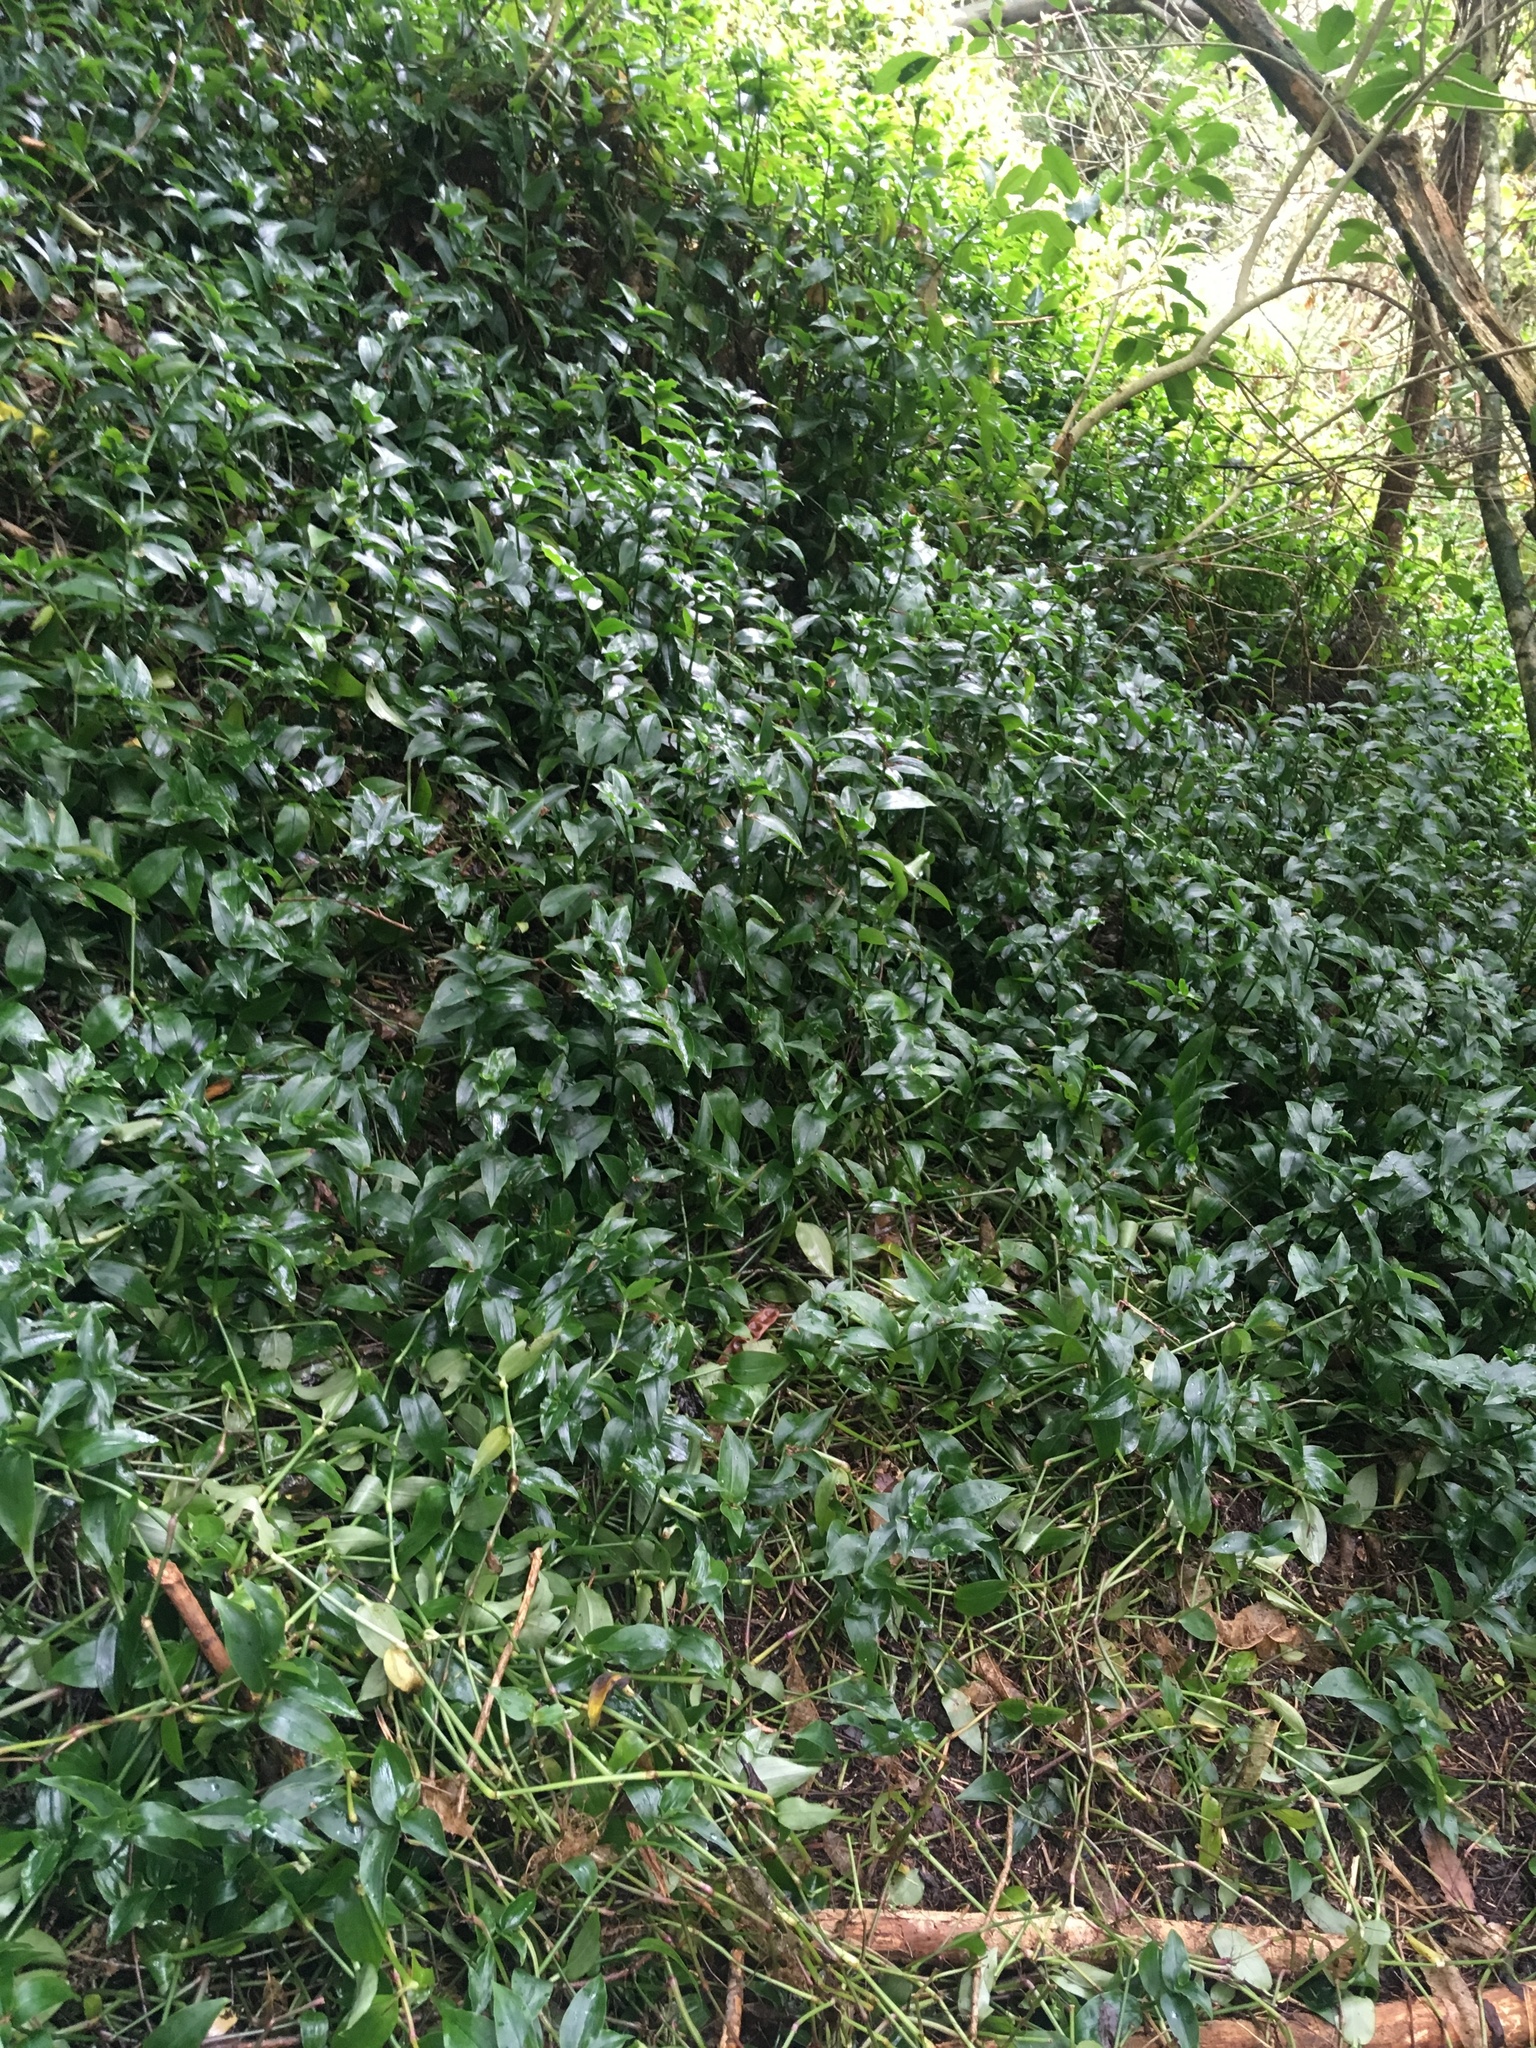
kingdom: Plantae
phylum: Tracheophyta
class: Liliopsida
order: Commelinales
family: Commelinaceae
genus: Tradescantia
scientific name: Tradescantia fluminensis
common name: Wandering-jew
